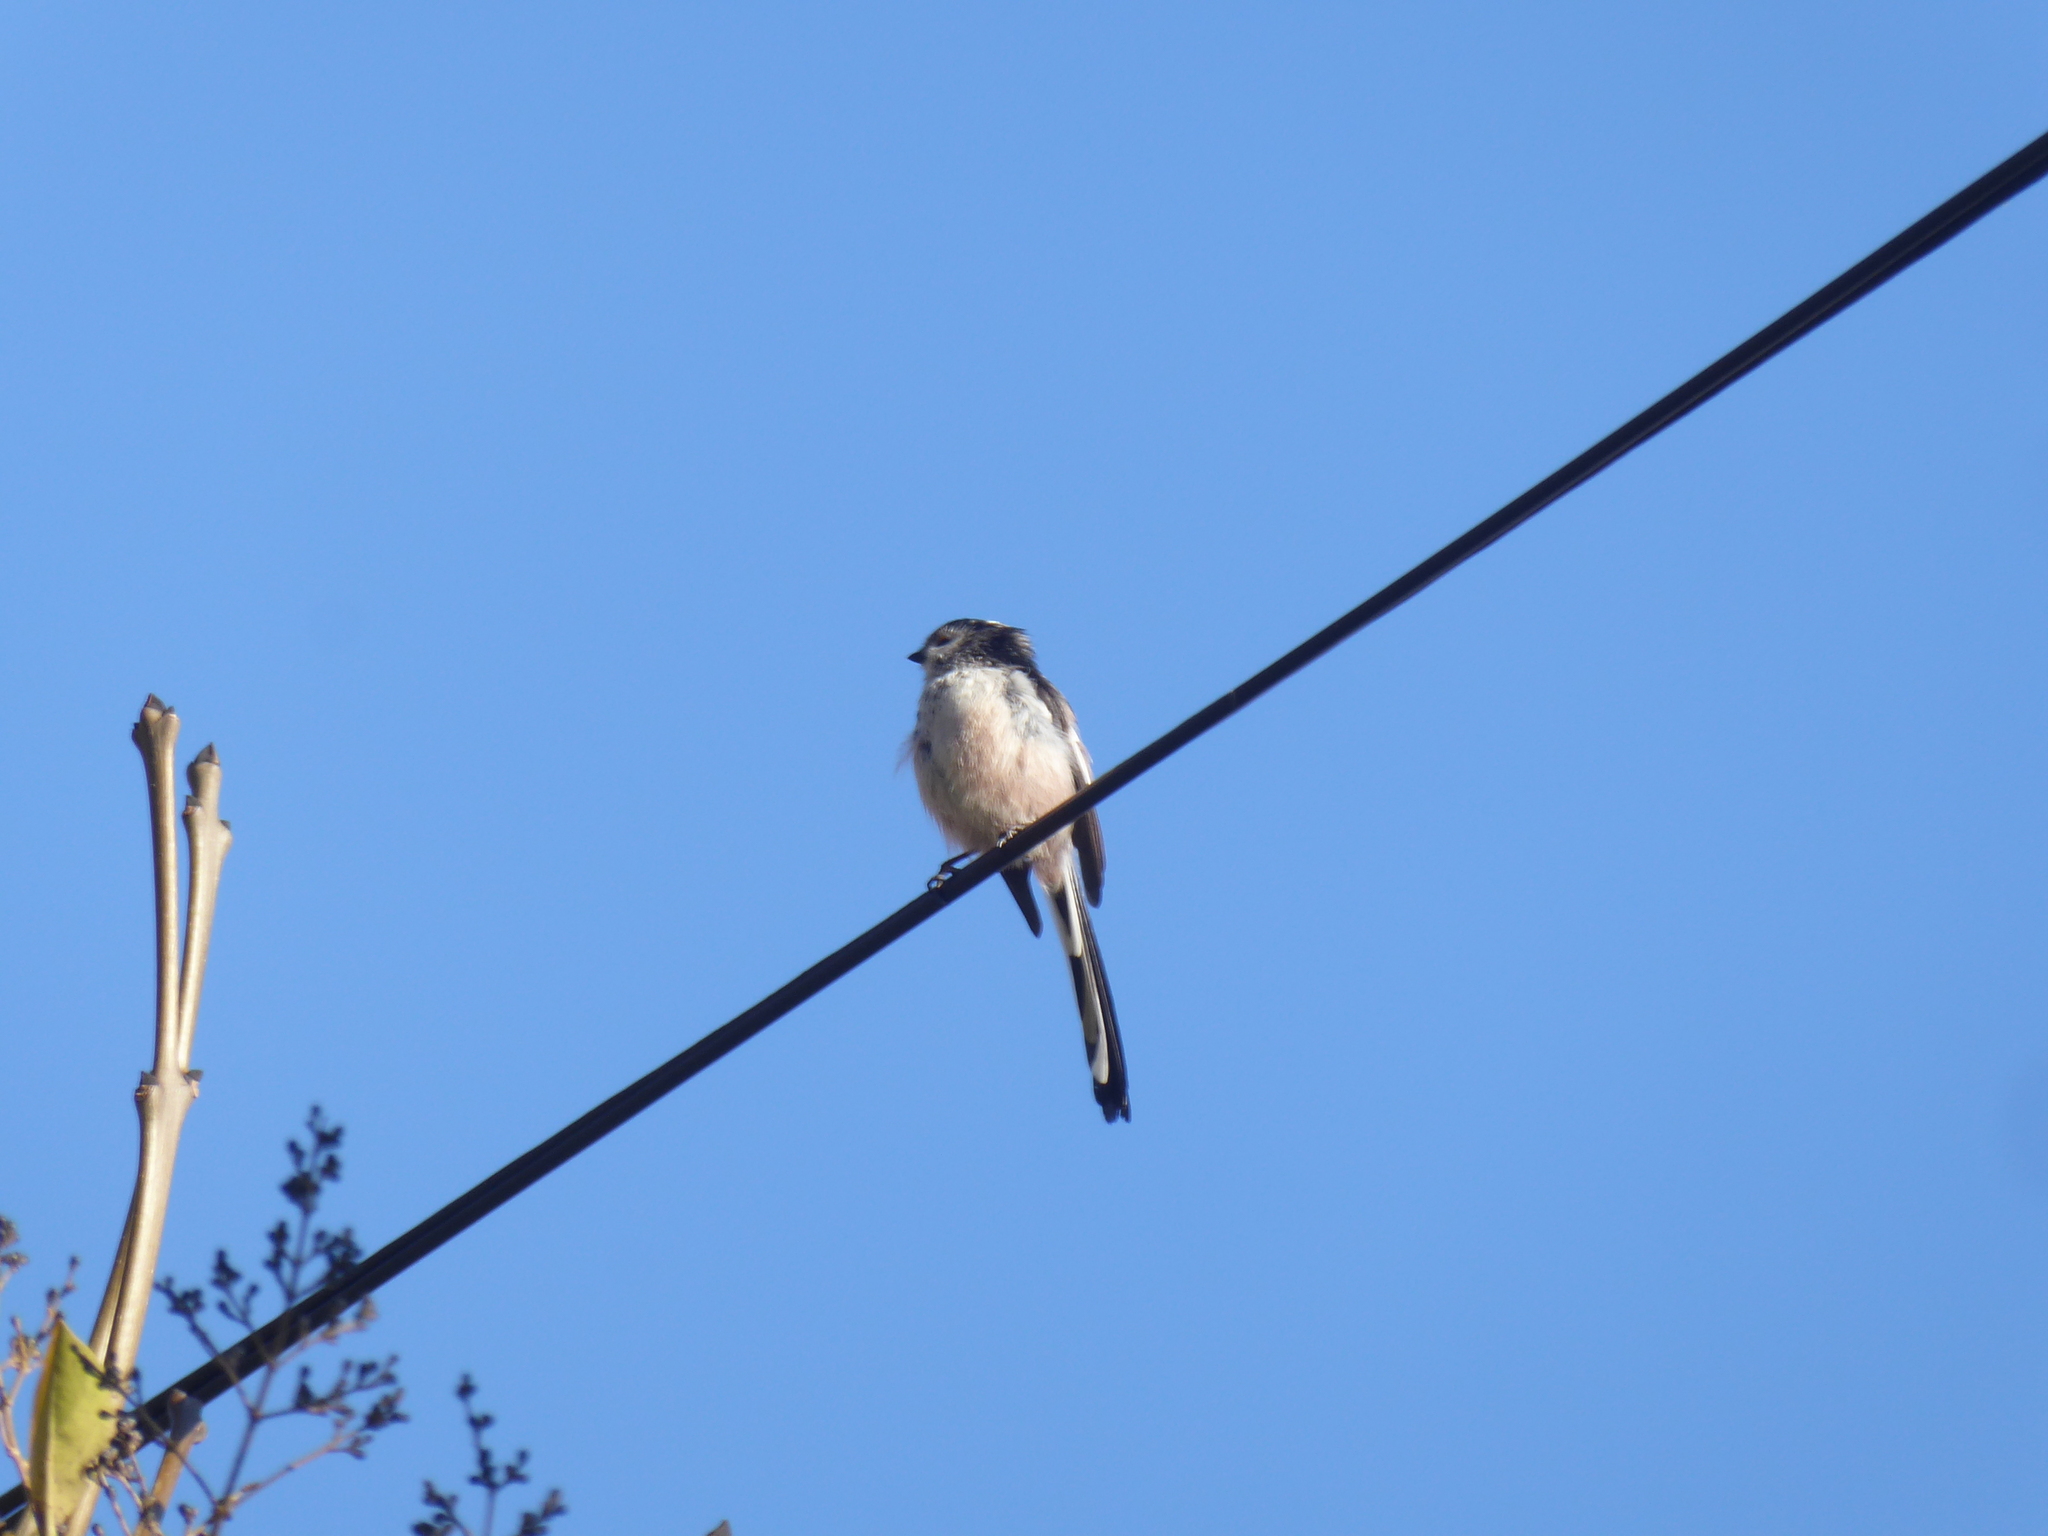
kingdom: Animalia
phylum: Chordata
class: Aves
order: Passeriformes
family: Aegithalidae
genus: Aegithalos
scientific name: Aegithalos caudatus
